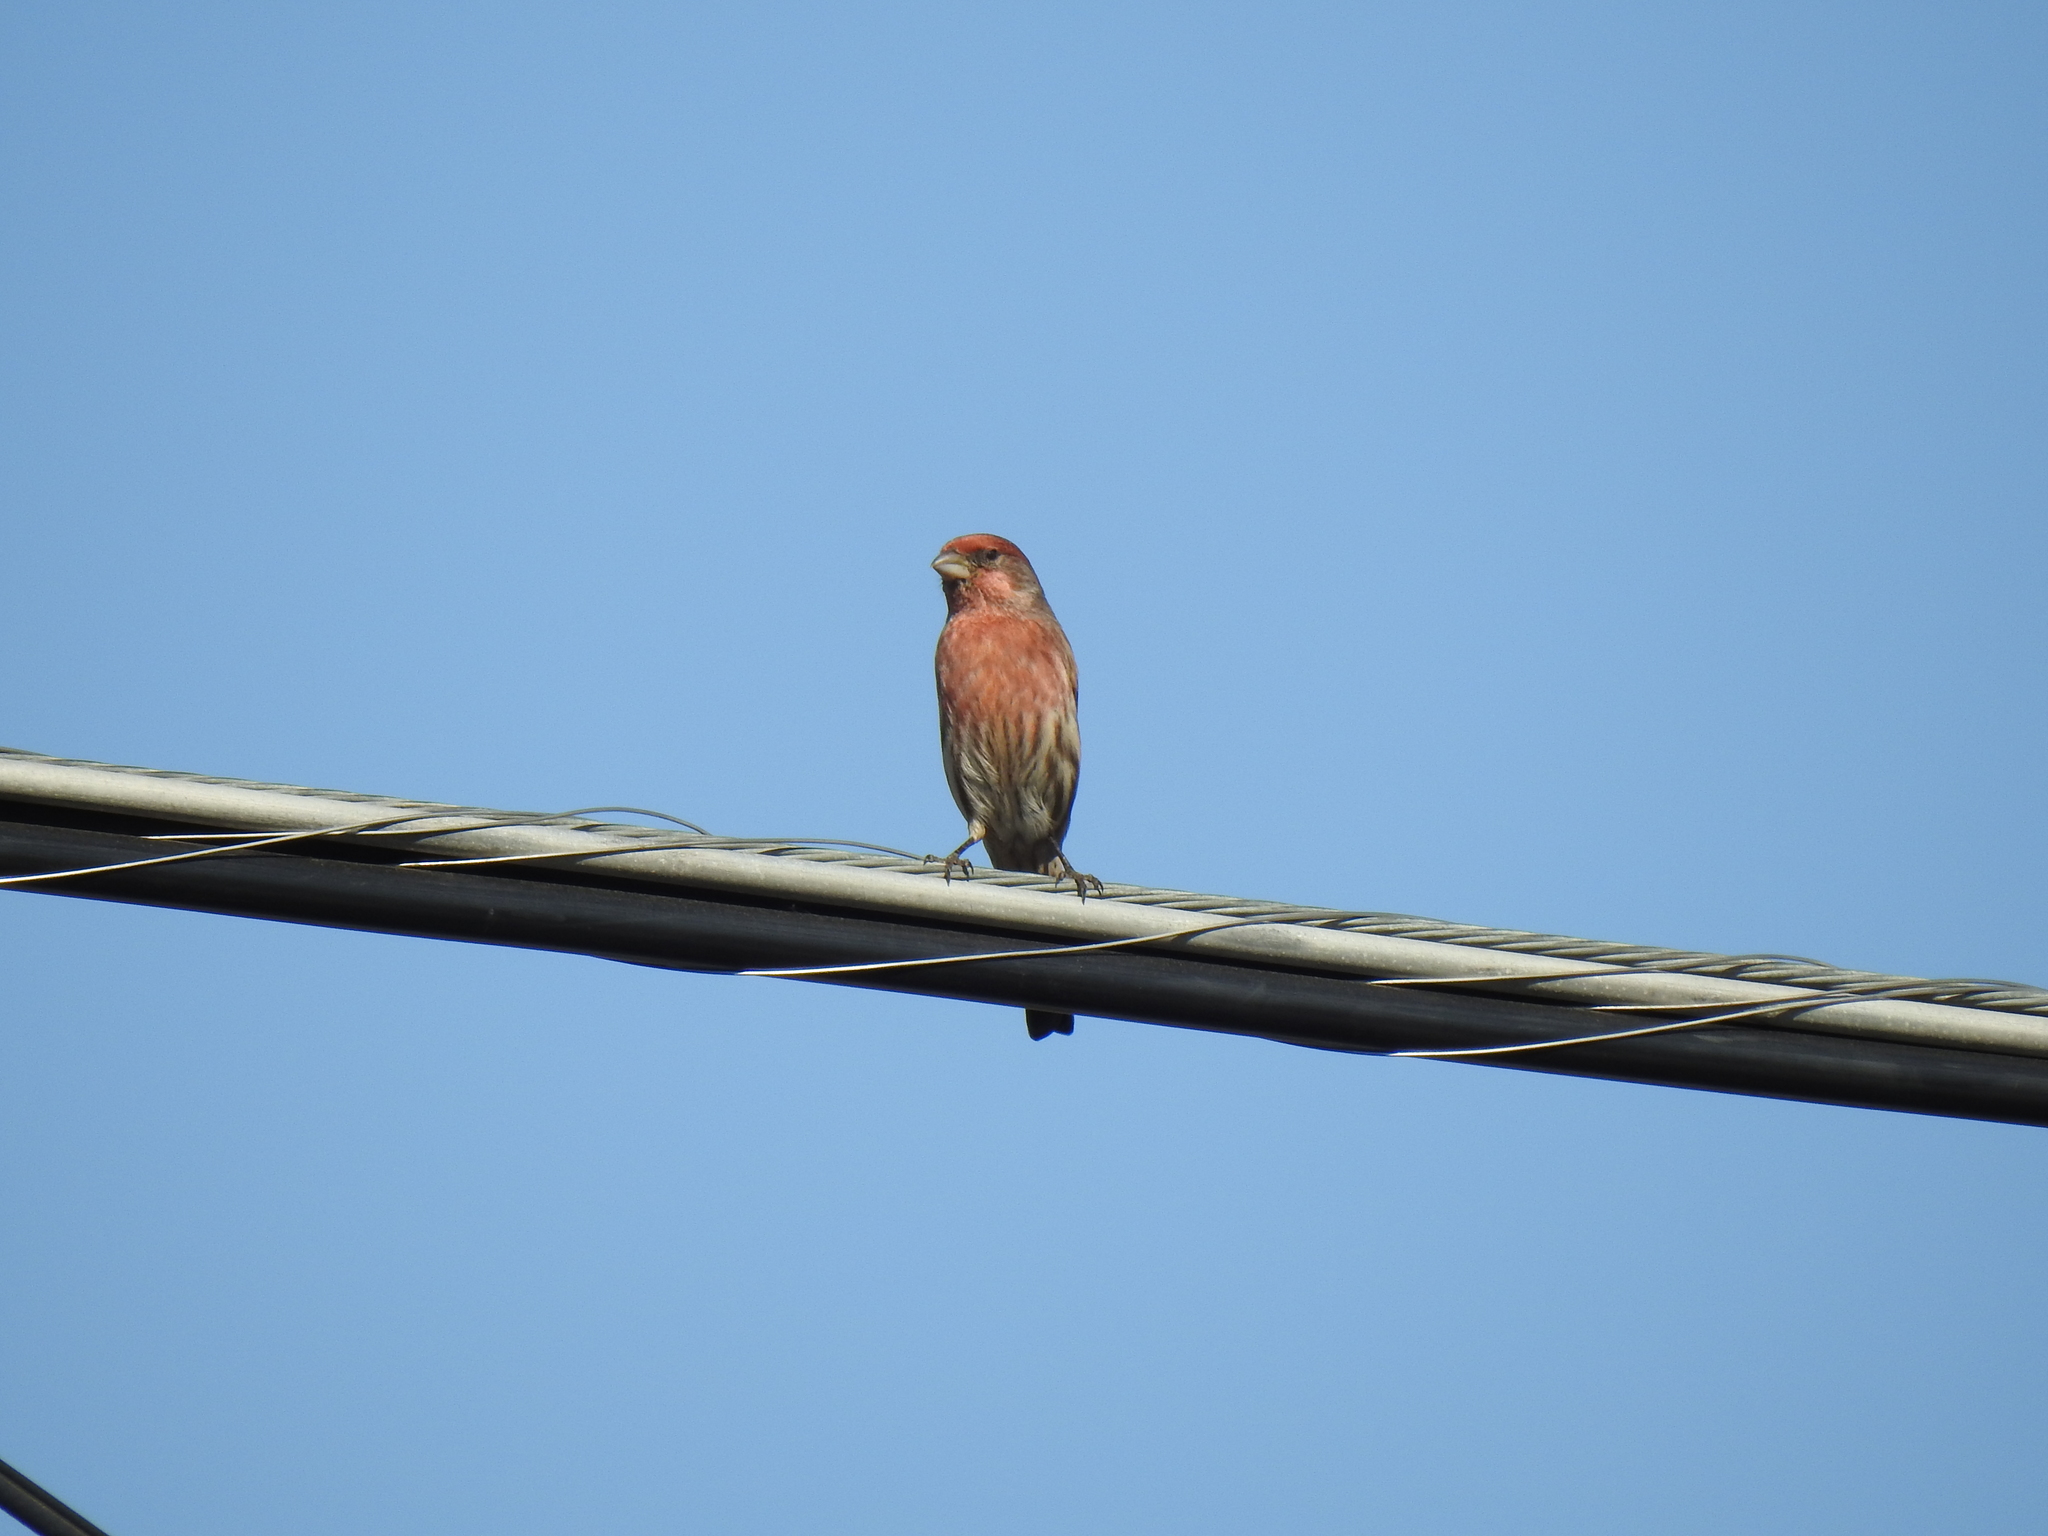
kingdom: Animalia
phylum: Chordata
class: Aves
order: Passeriformes
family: Fringillidae
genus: Haemorhous
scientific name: Haemorhous mexicanus
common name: House finch
